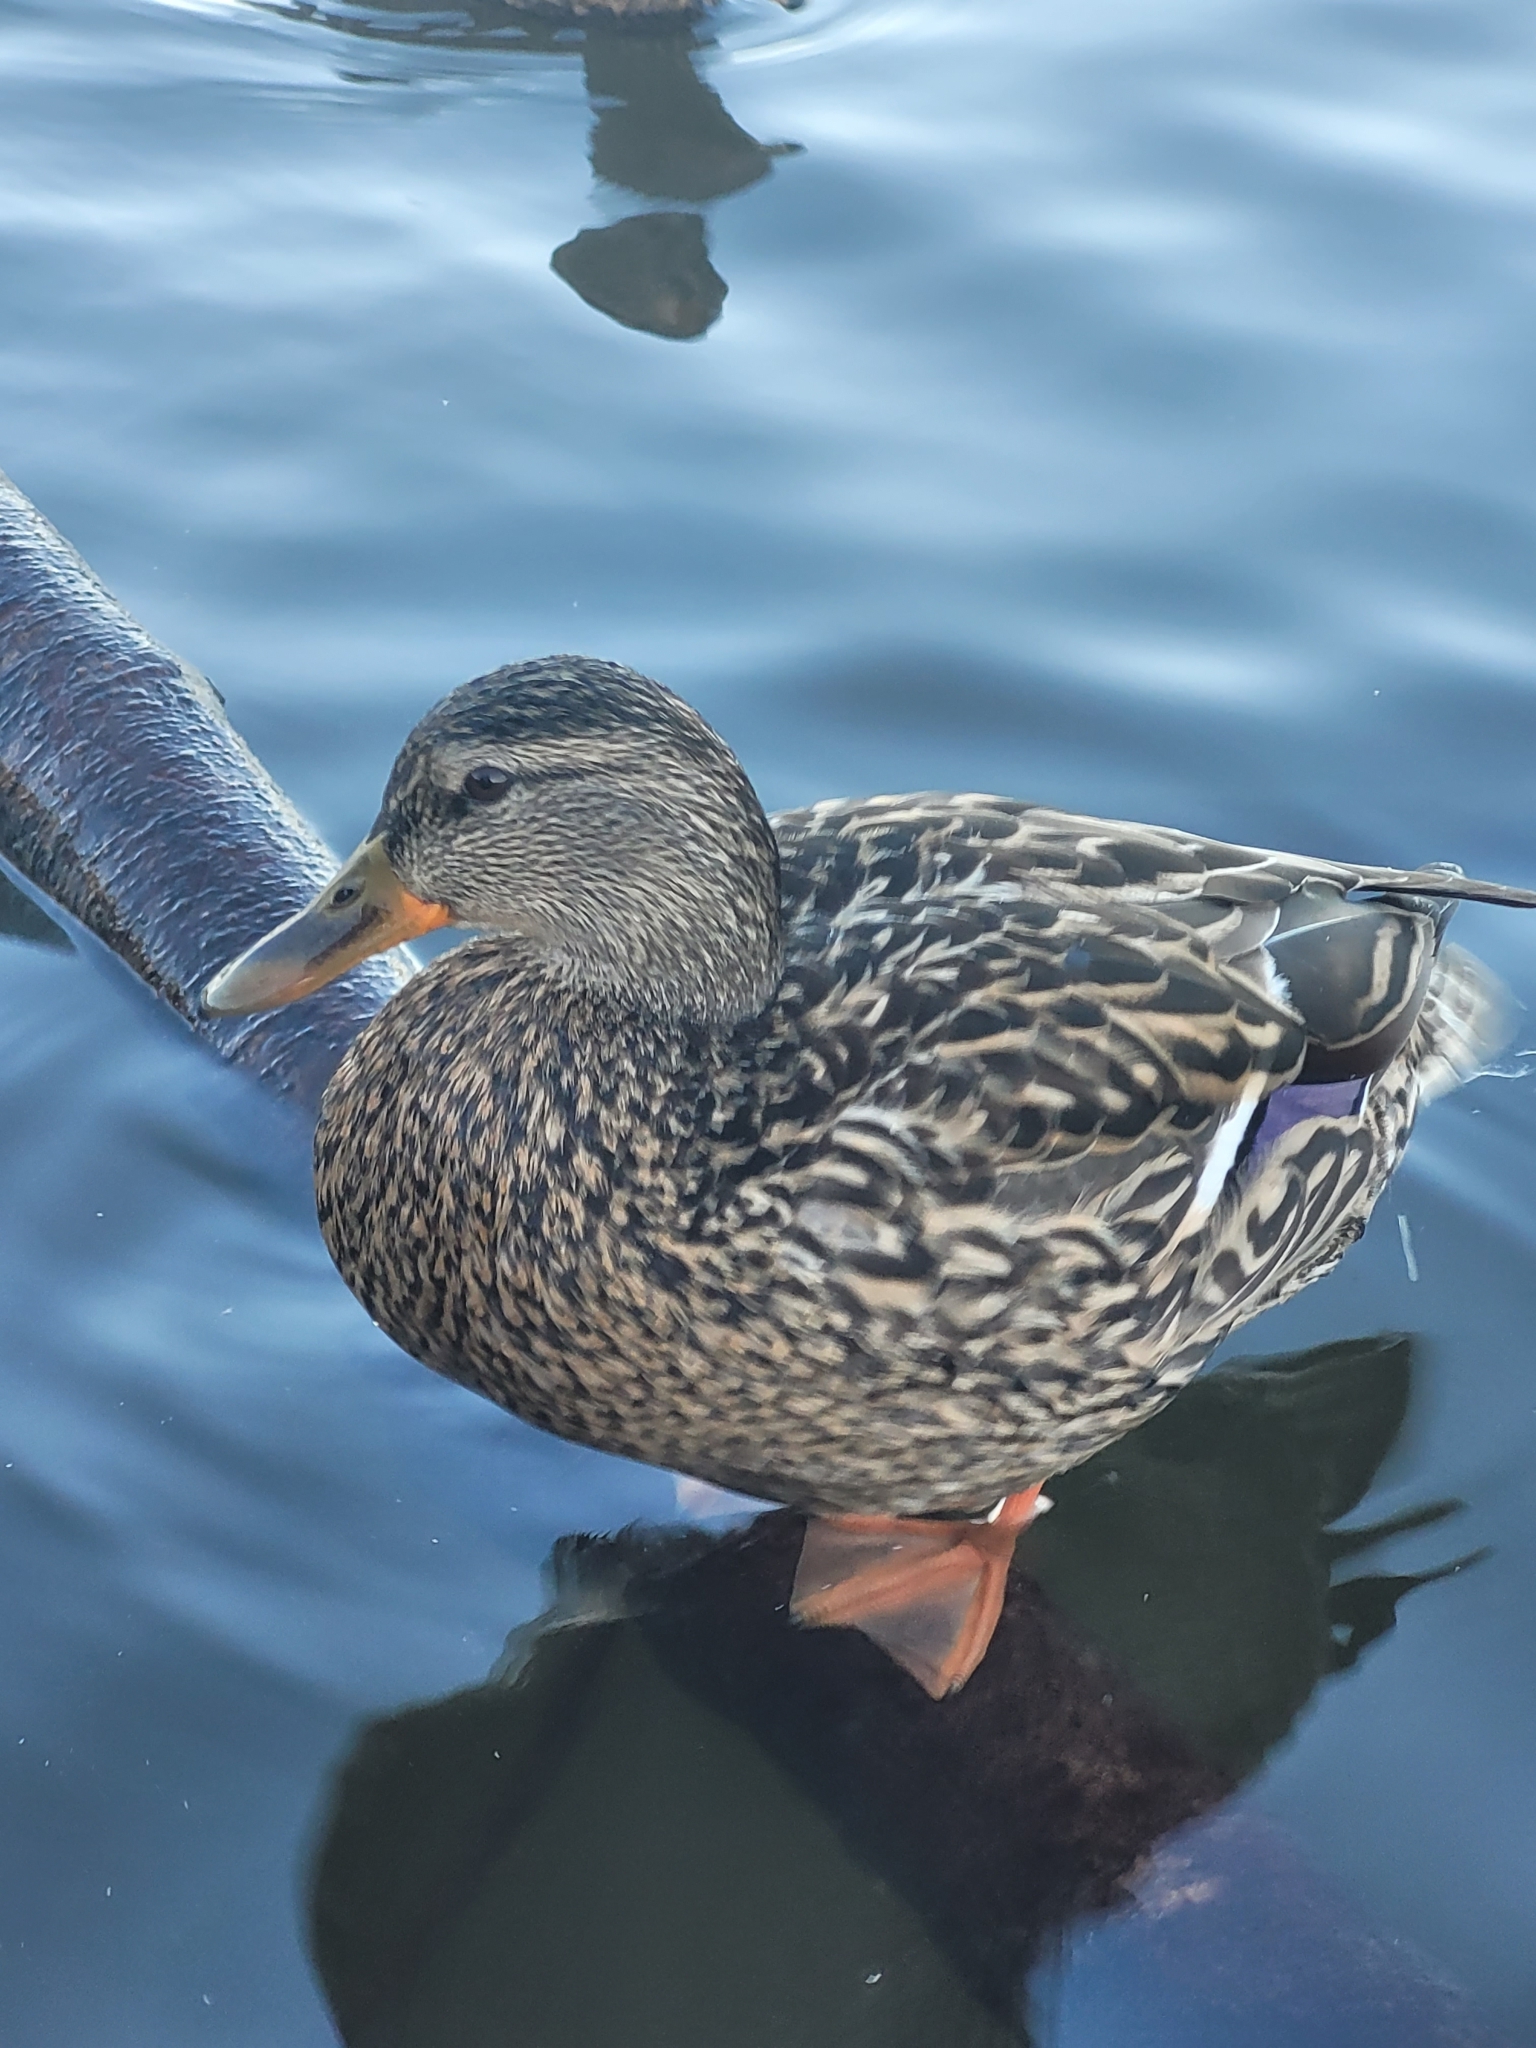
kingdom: Animalia
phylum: Chordata
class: Aves
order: Anseriformes
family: Anatidae
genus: Anas
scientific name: Anas platyrhynchos
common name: Mallard
